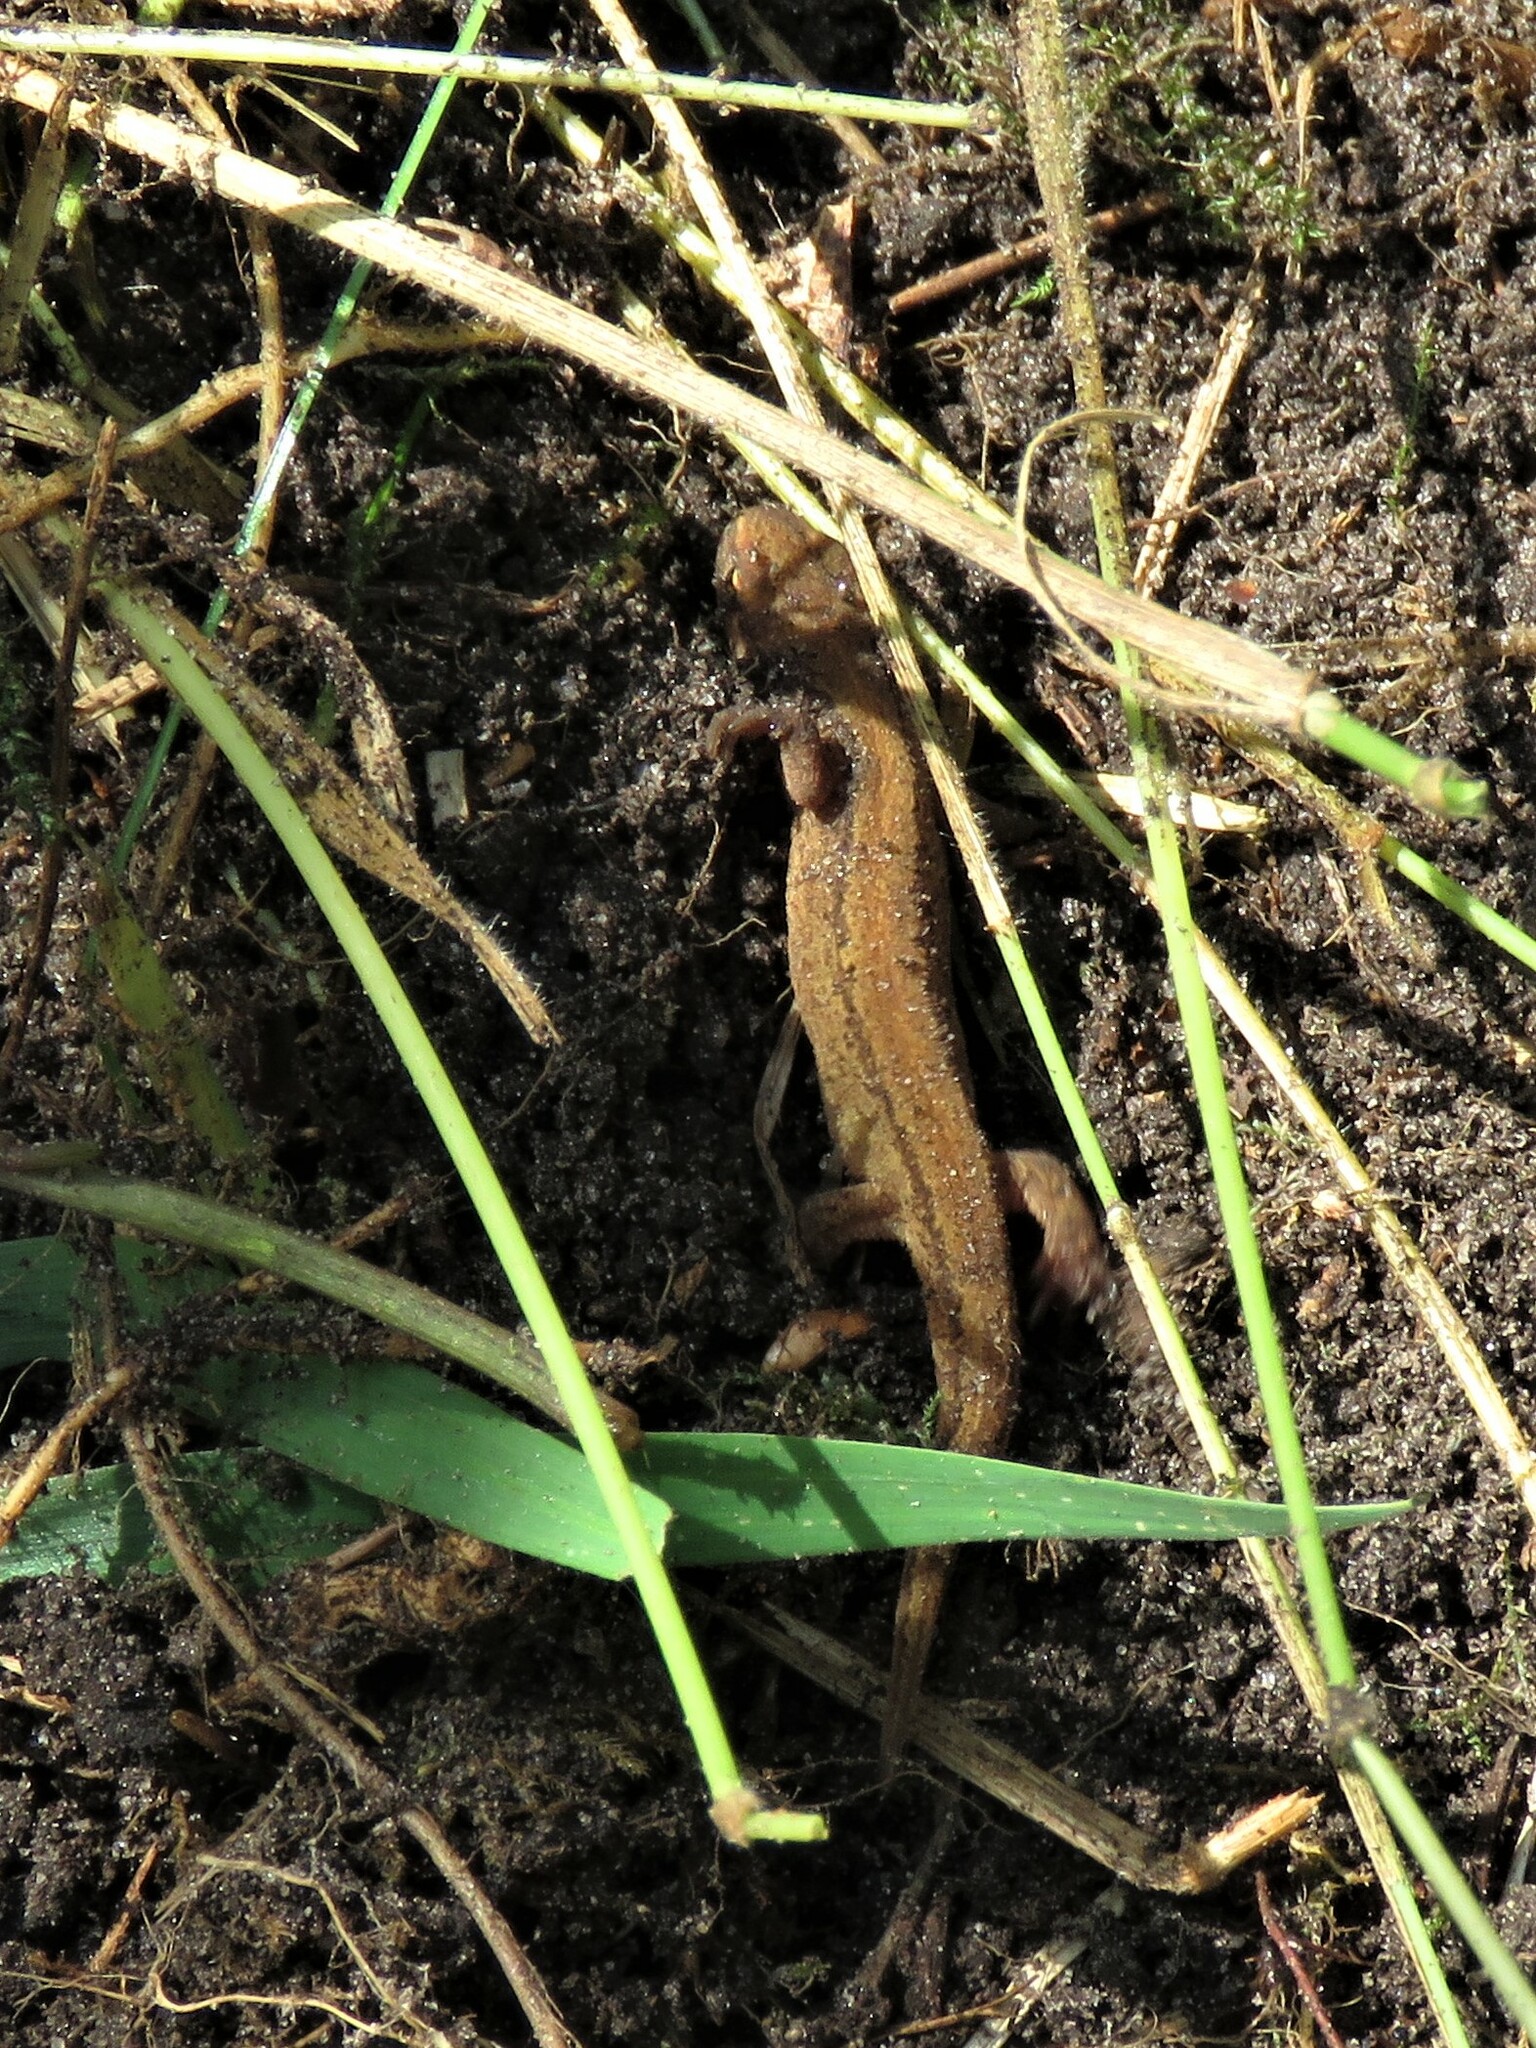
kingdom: Animalia
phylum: Chordata
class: Amphibia
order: Caudata
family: Salamandridae
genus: Lissotriton
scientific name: Lissotriton vulgaris
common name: Smooth newt
